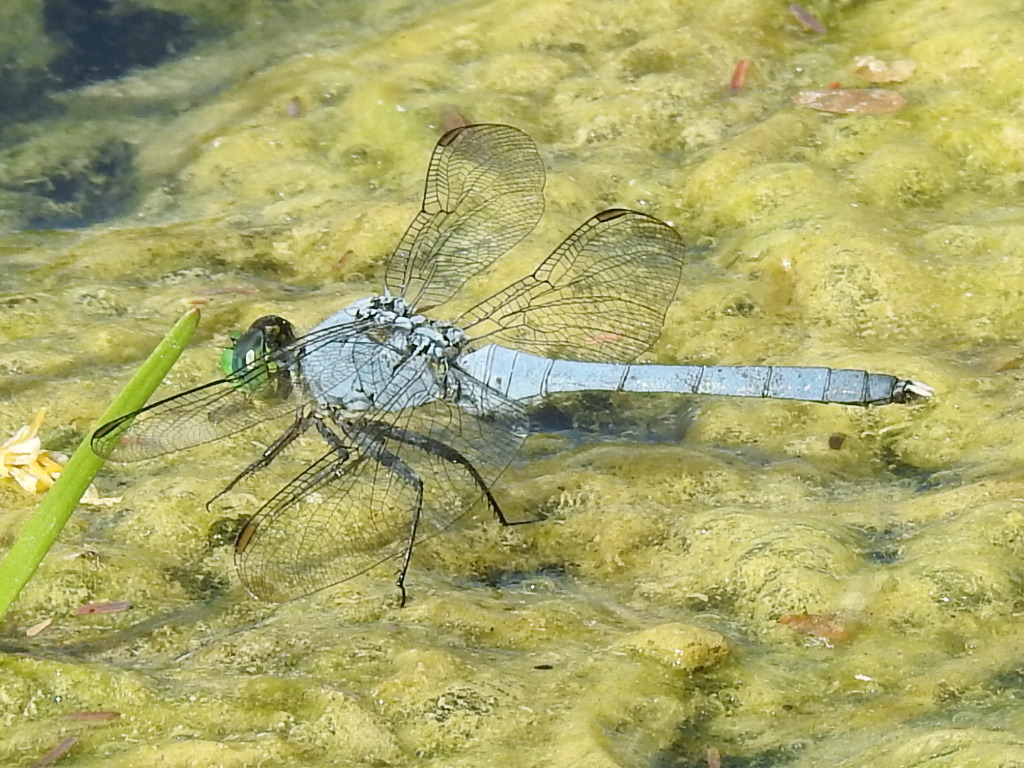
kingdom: Animalia
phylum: Arthropoda
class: Insecta
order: Odonata
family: Libellulidae
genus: Erythemis
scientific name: Erythemis simplicicollis
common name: Eastern pondhawk
